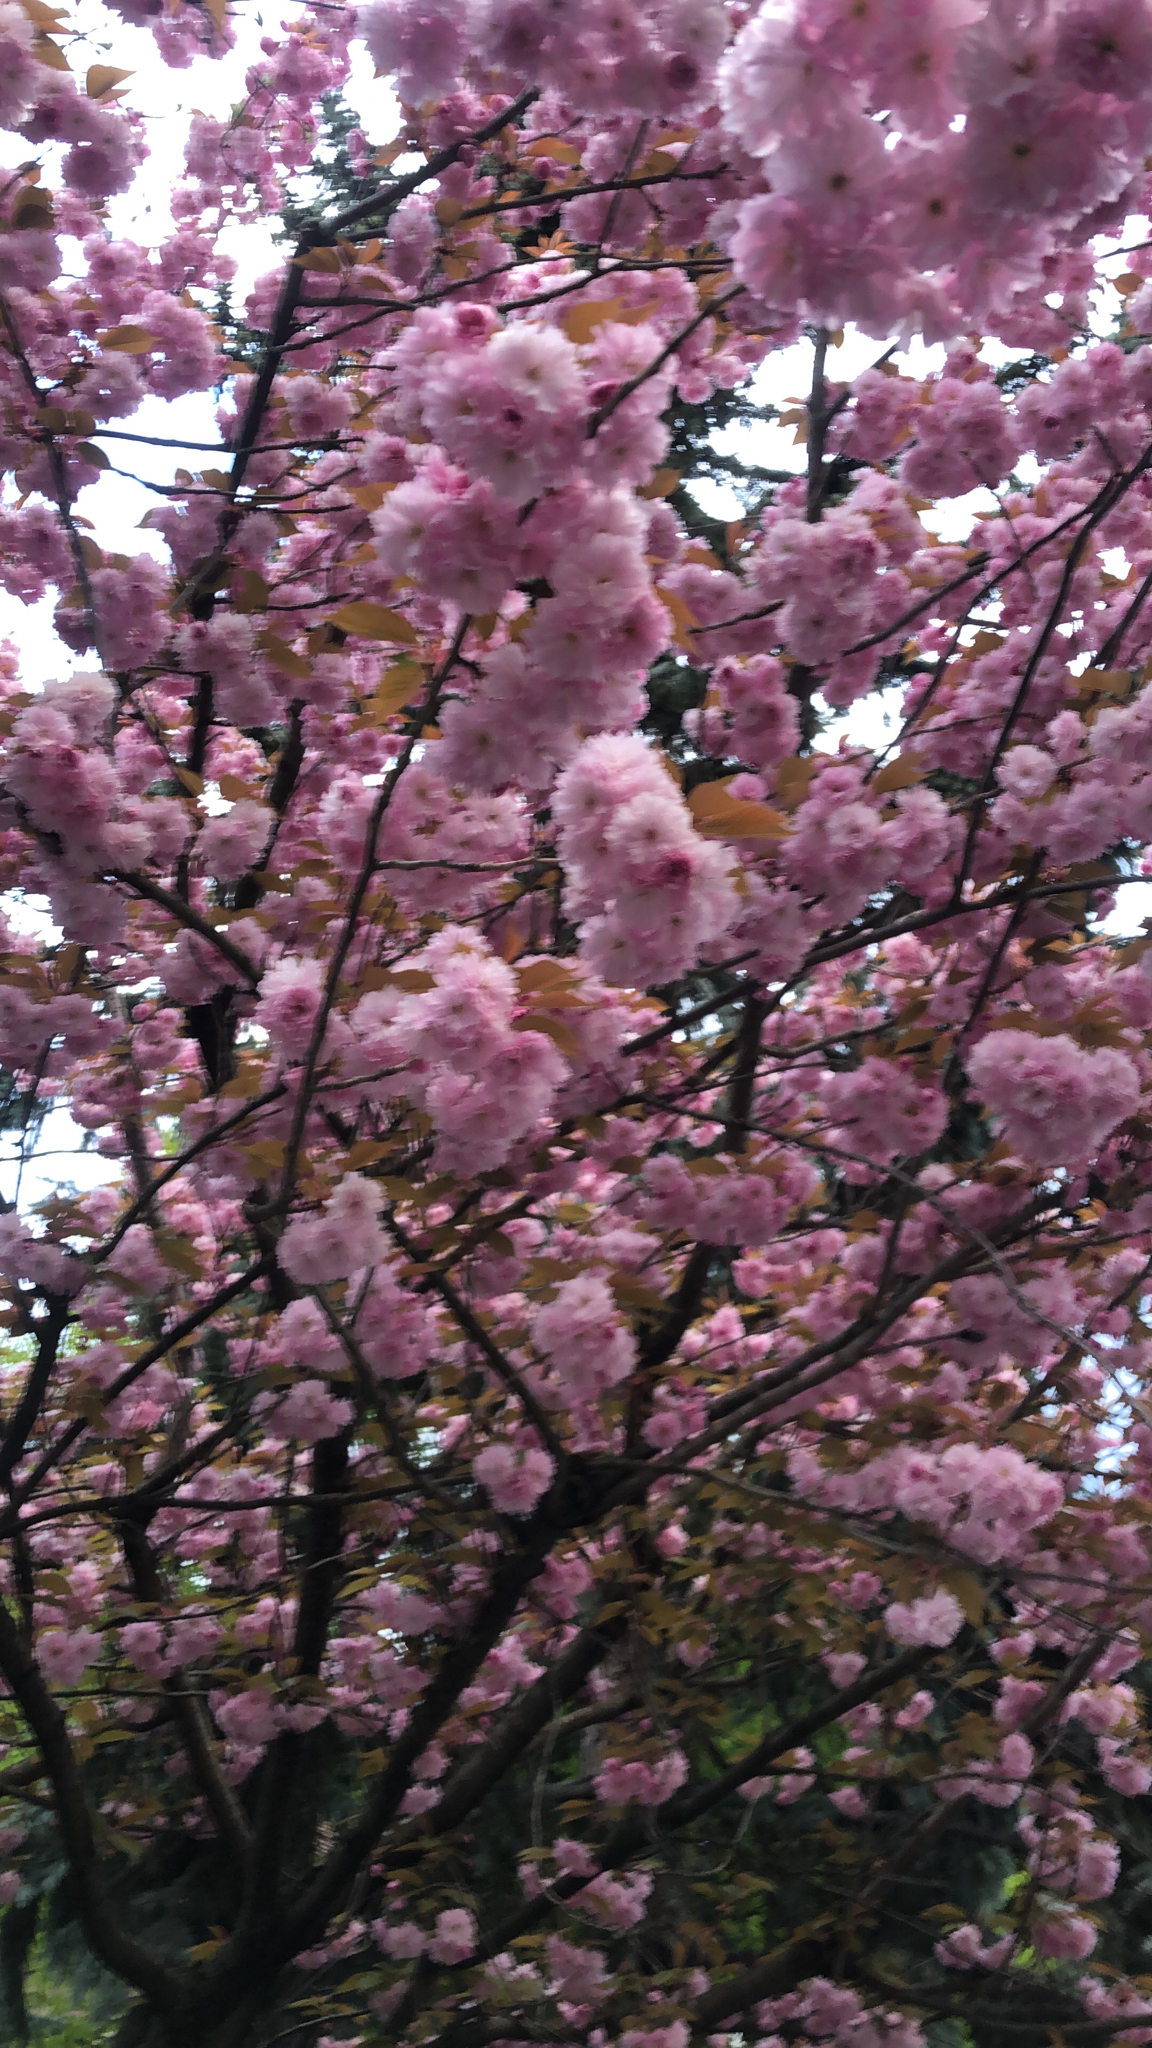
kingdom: Plantae
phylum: Tracheophyta
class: Magnoliopsida
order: Rosales
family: Rosaceae
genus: Prunus
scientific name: Prunus serrulata
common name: Japanese cherry
